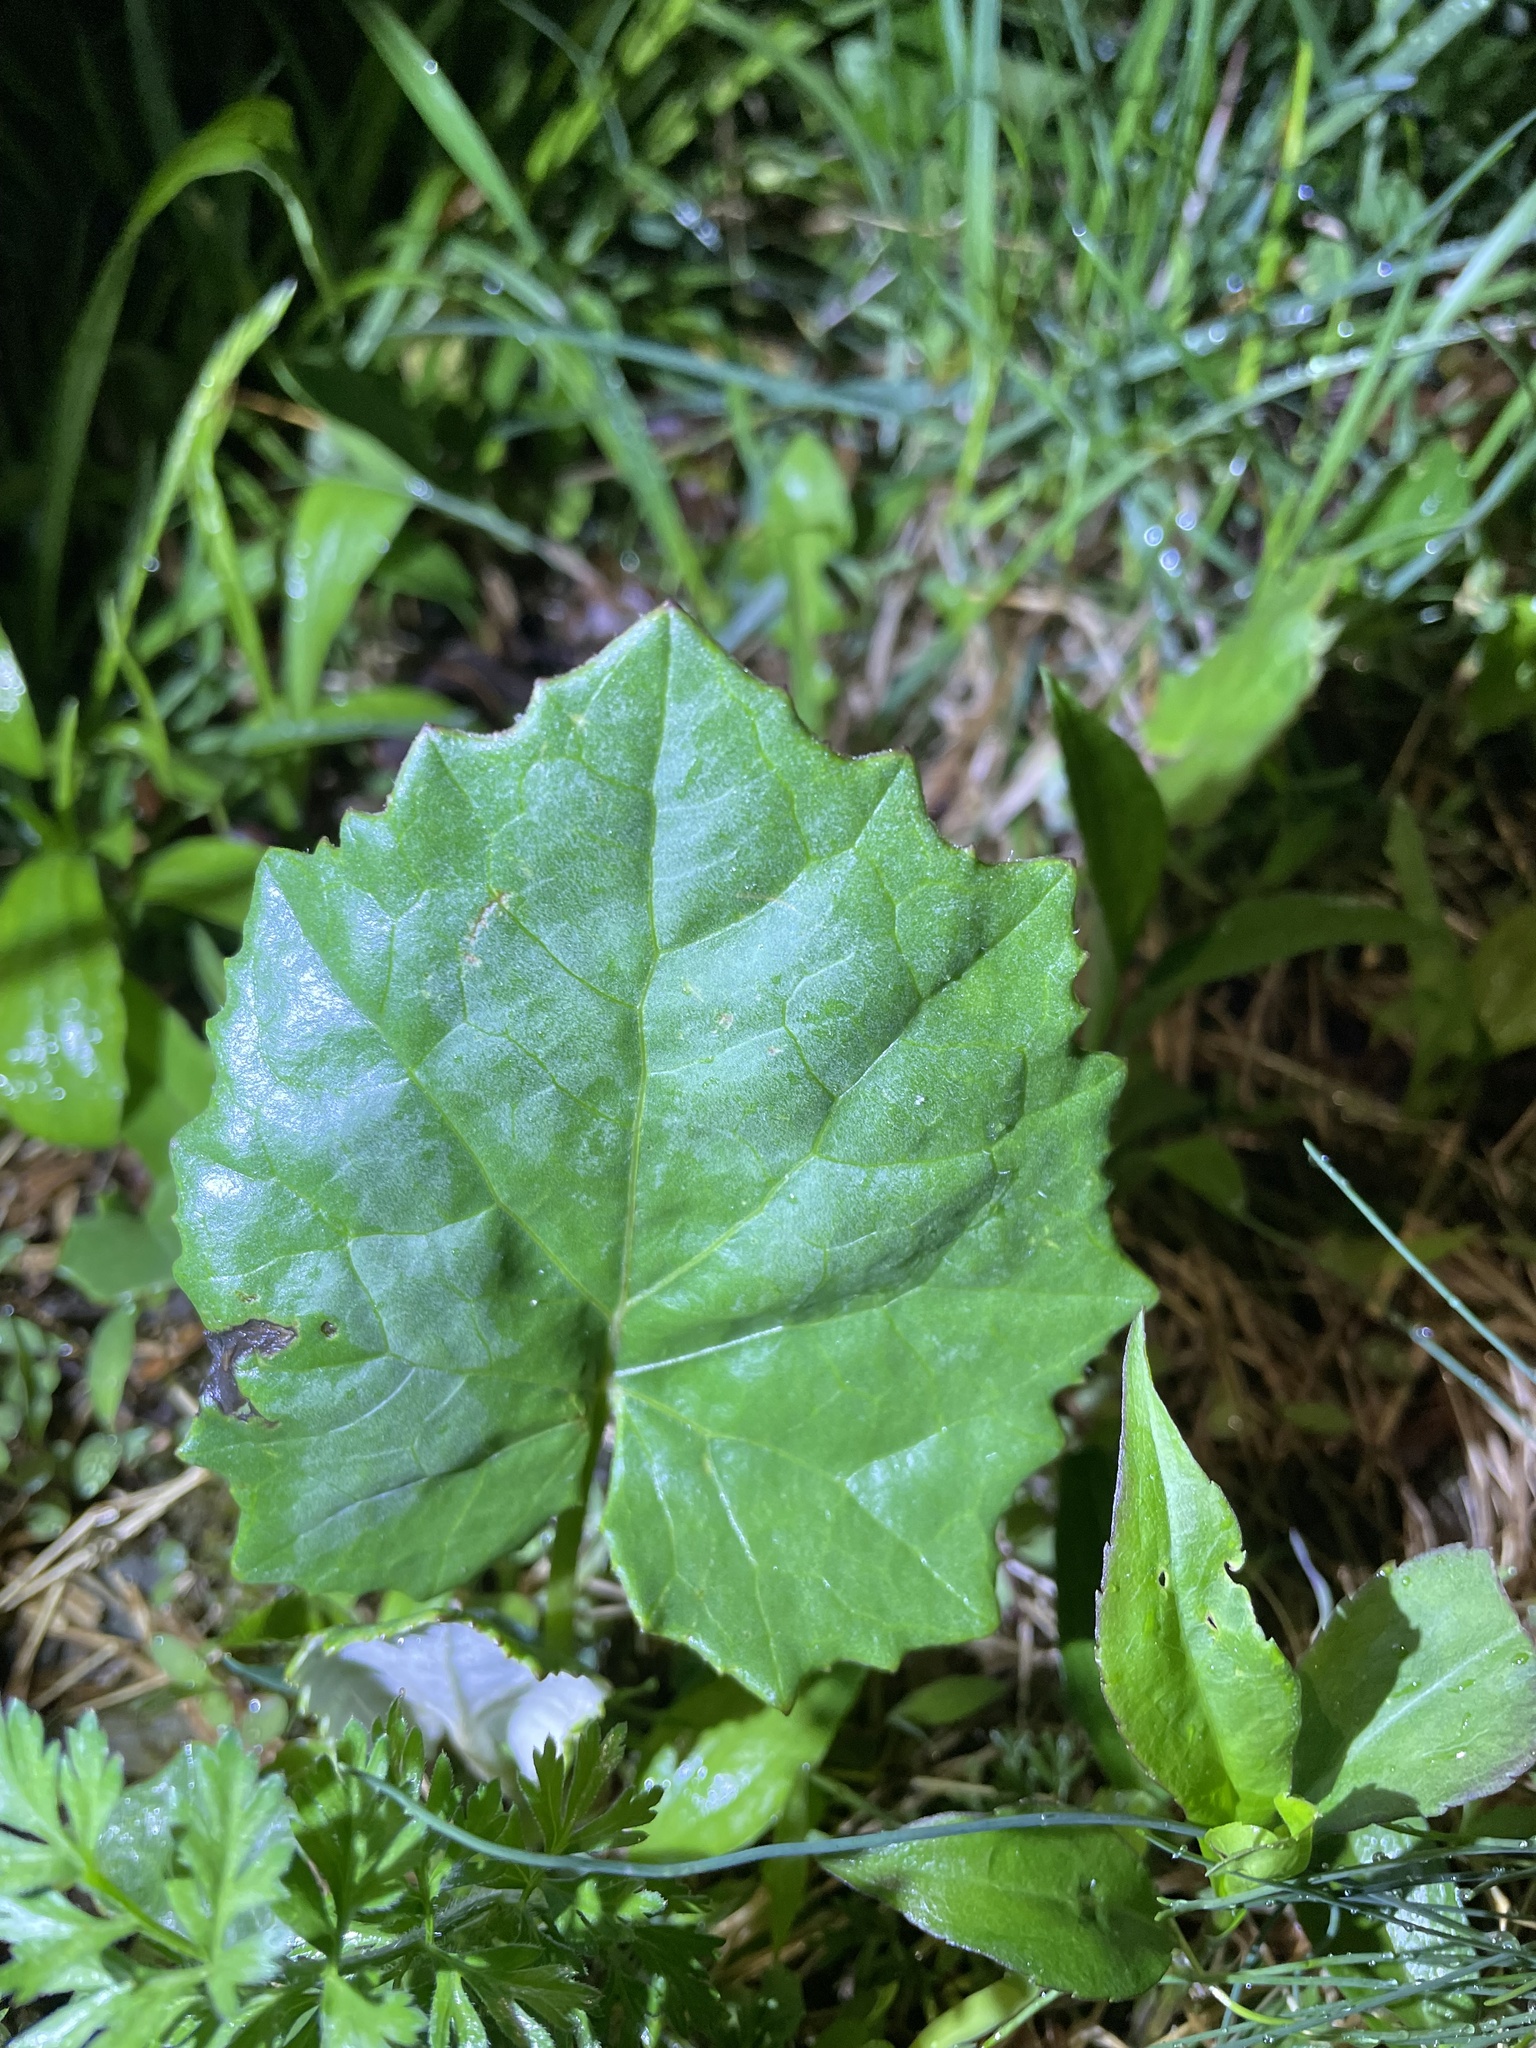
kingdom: Plantae
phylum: Tracheophyta
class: Magnoliopsida
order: Asterales
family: Asteraceae
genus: Tussilago
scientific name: Tussilago farfara
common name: Coltsfoot
